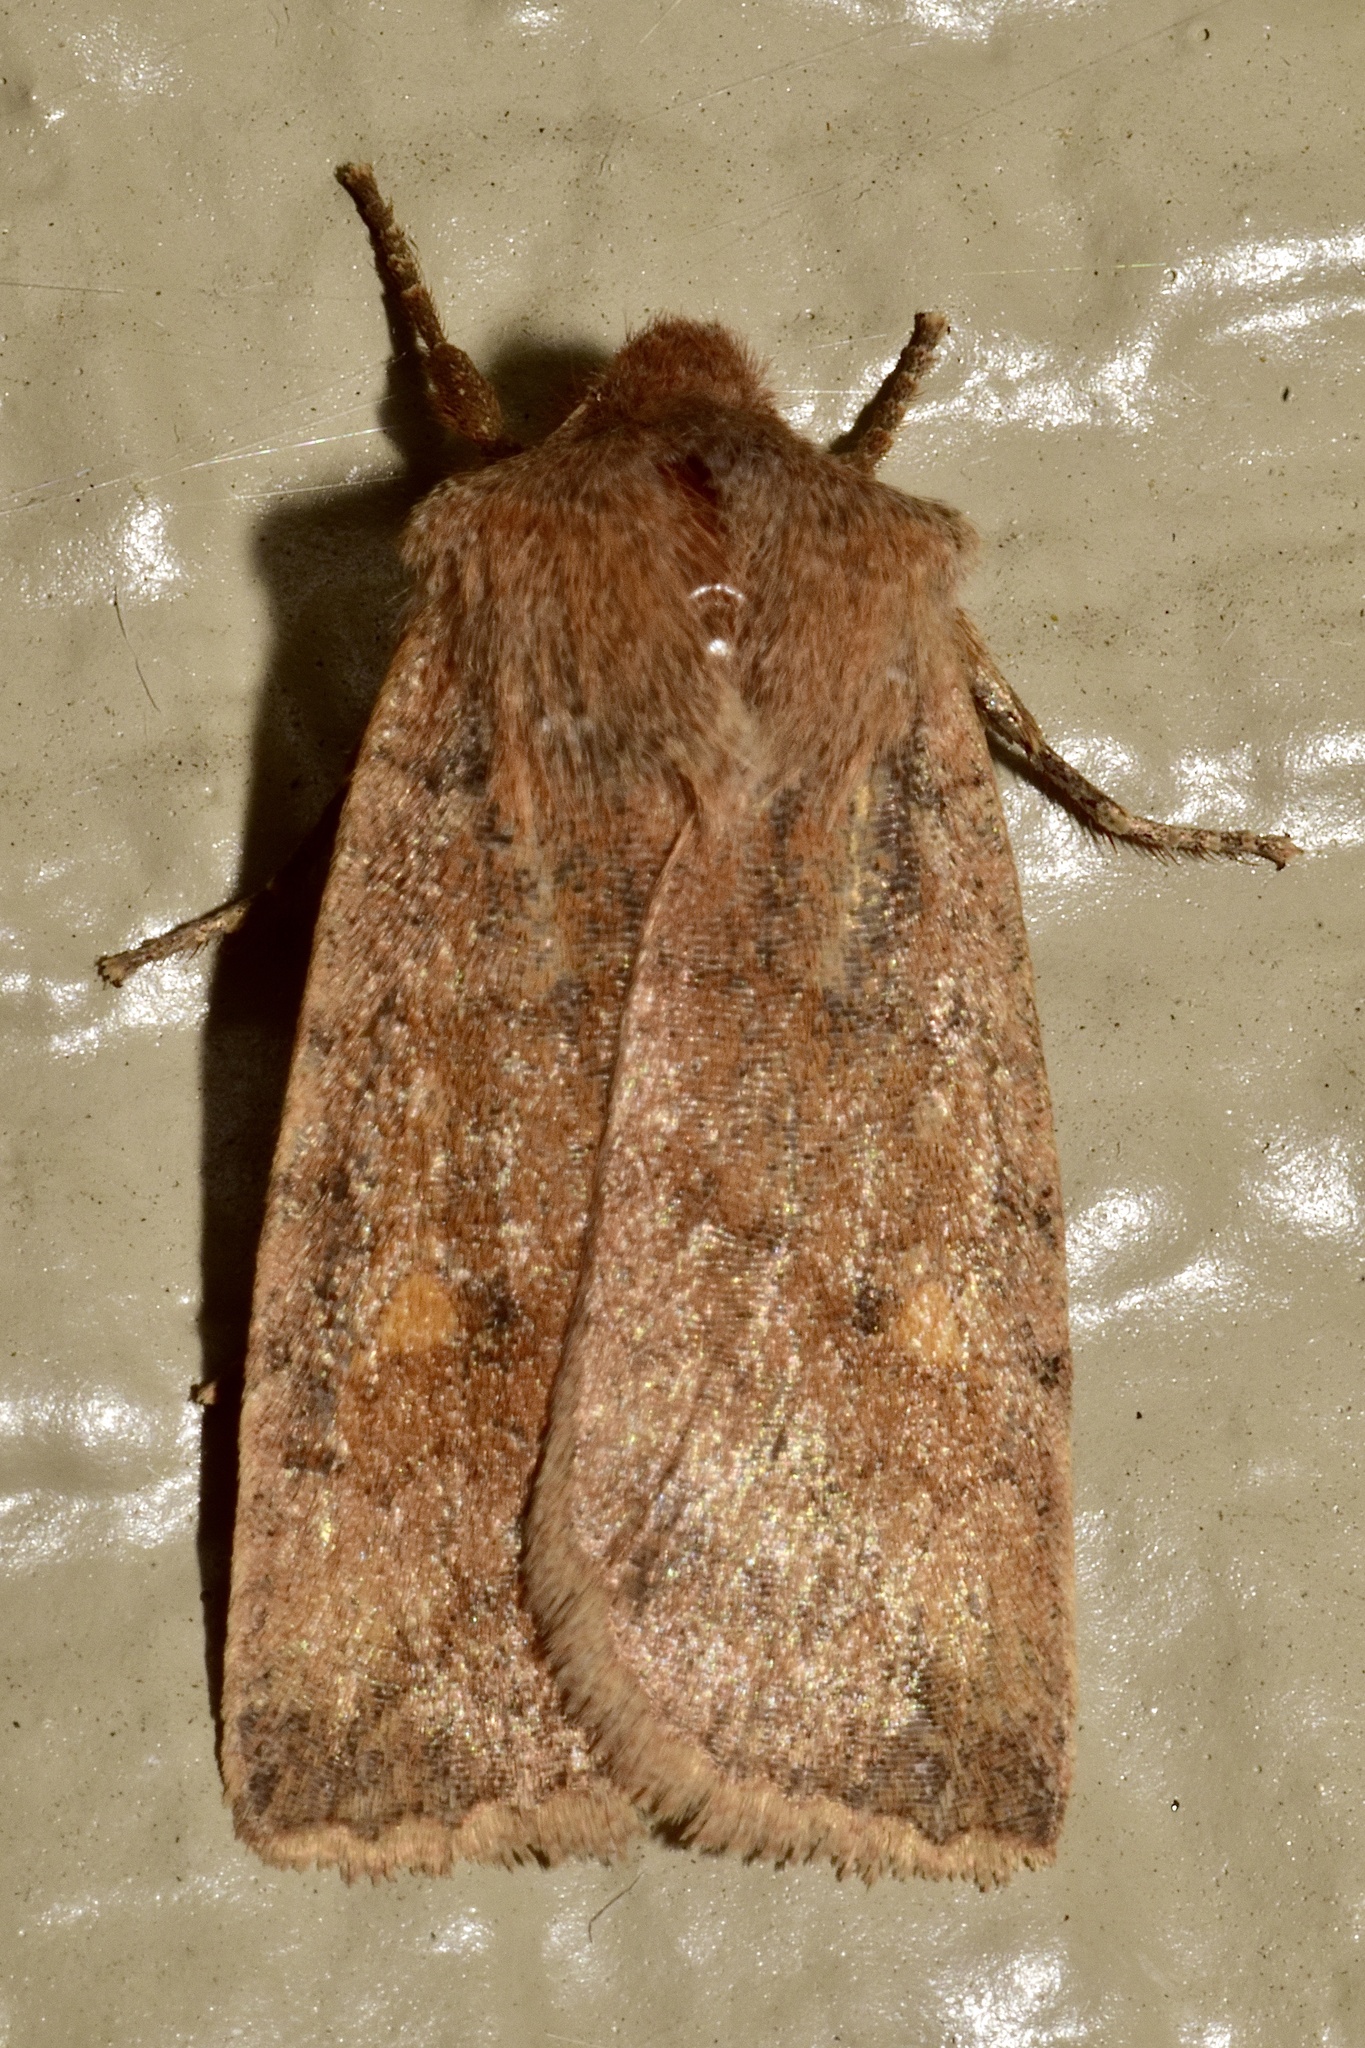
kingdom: Animalia
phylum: Arthropoda
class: Insecta
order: Lepidoptera
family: Noctuidae
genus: Eupsilia
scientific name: Eupsilia tristigmata
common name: Three-spotted sallow
